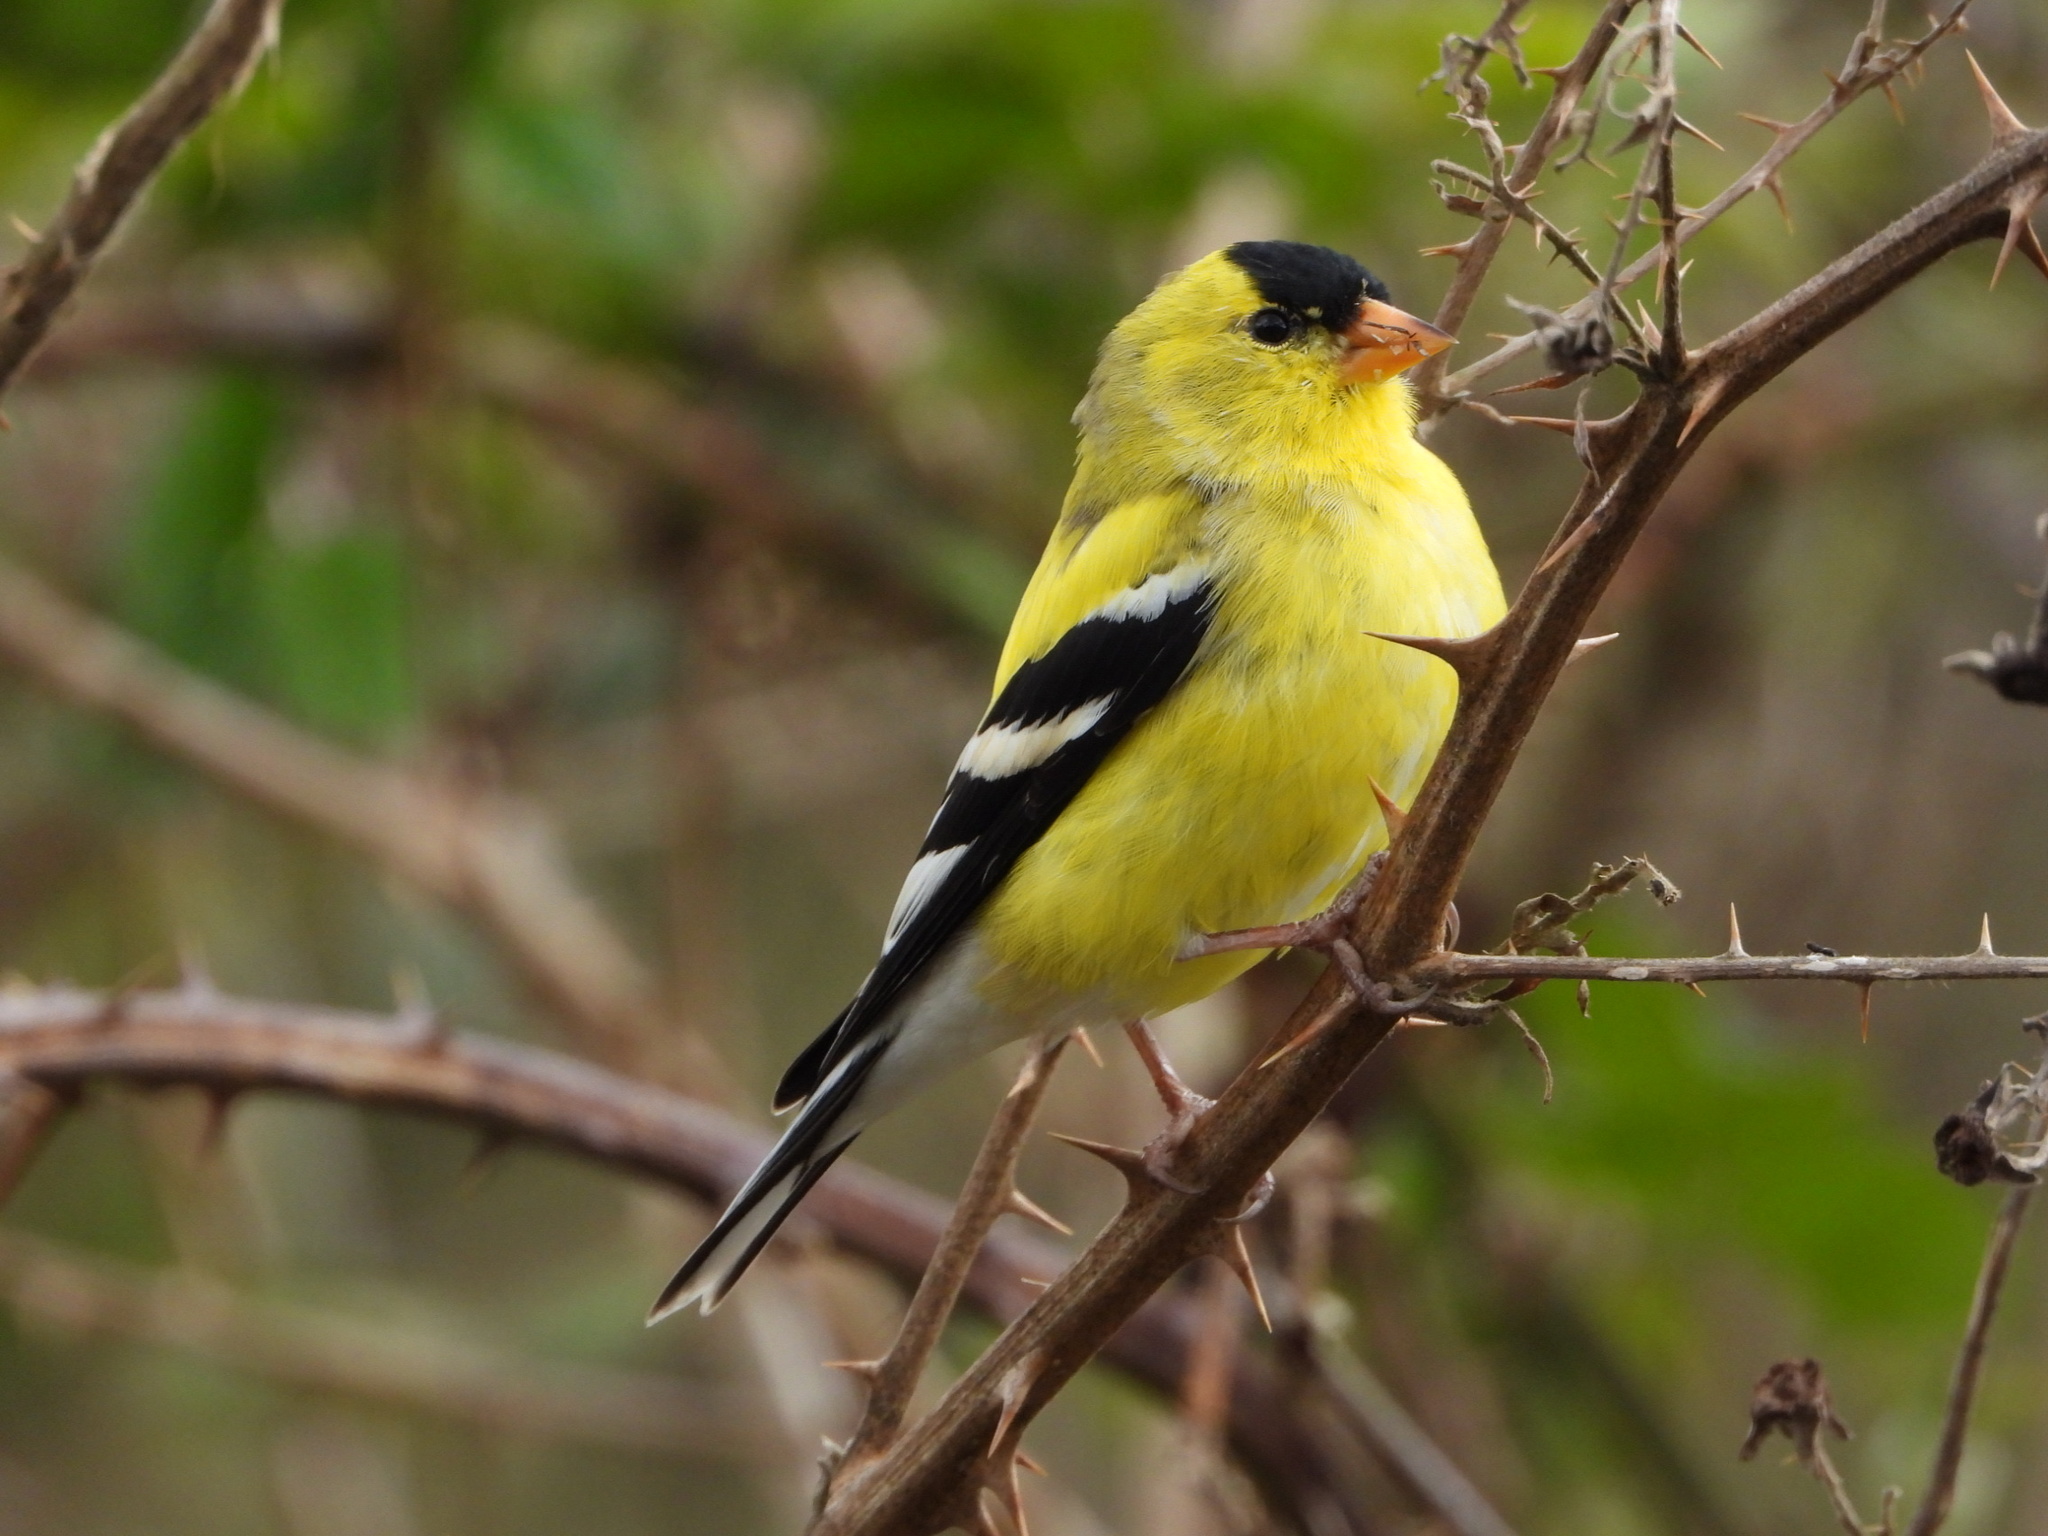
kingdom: Animalia
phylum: Chordata
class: Aves
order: Passeriformes
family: Fringillidae
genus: Spinus
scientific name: Spinus tristis
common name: American goldfinch
